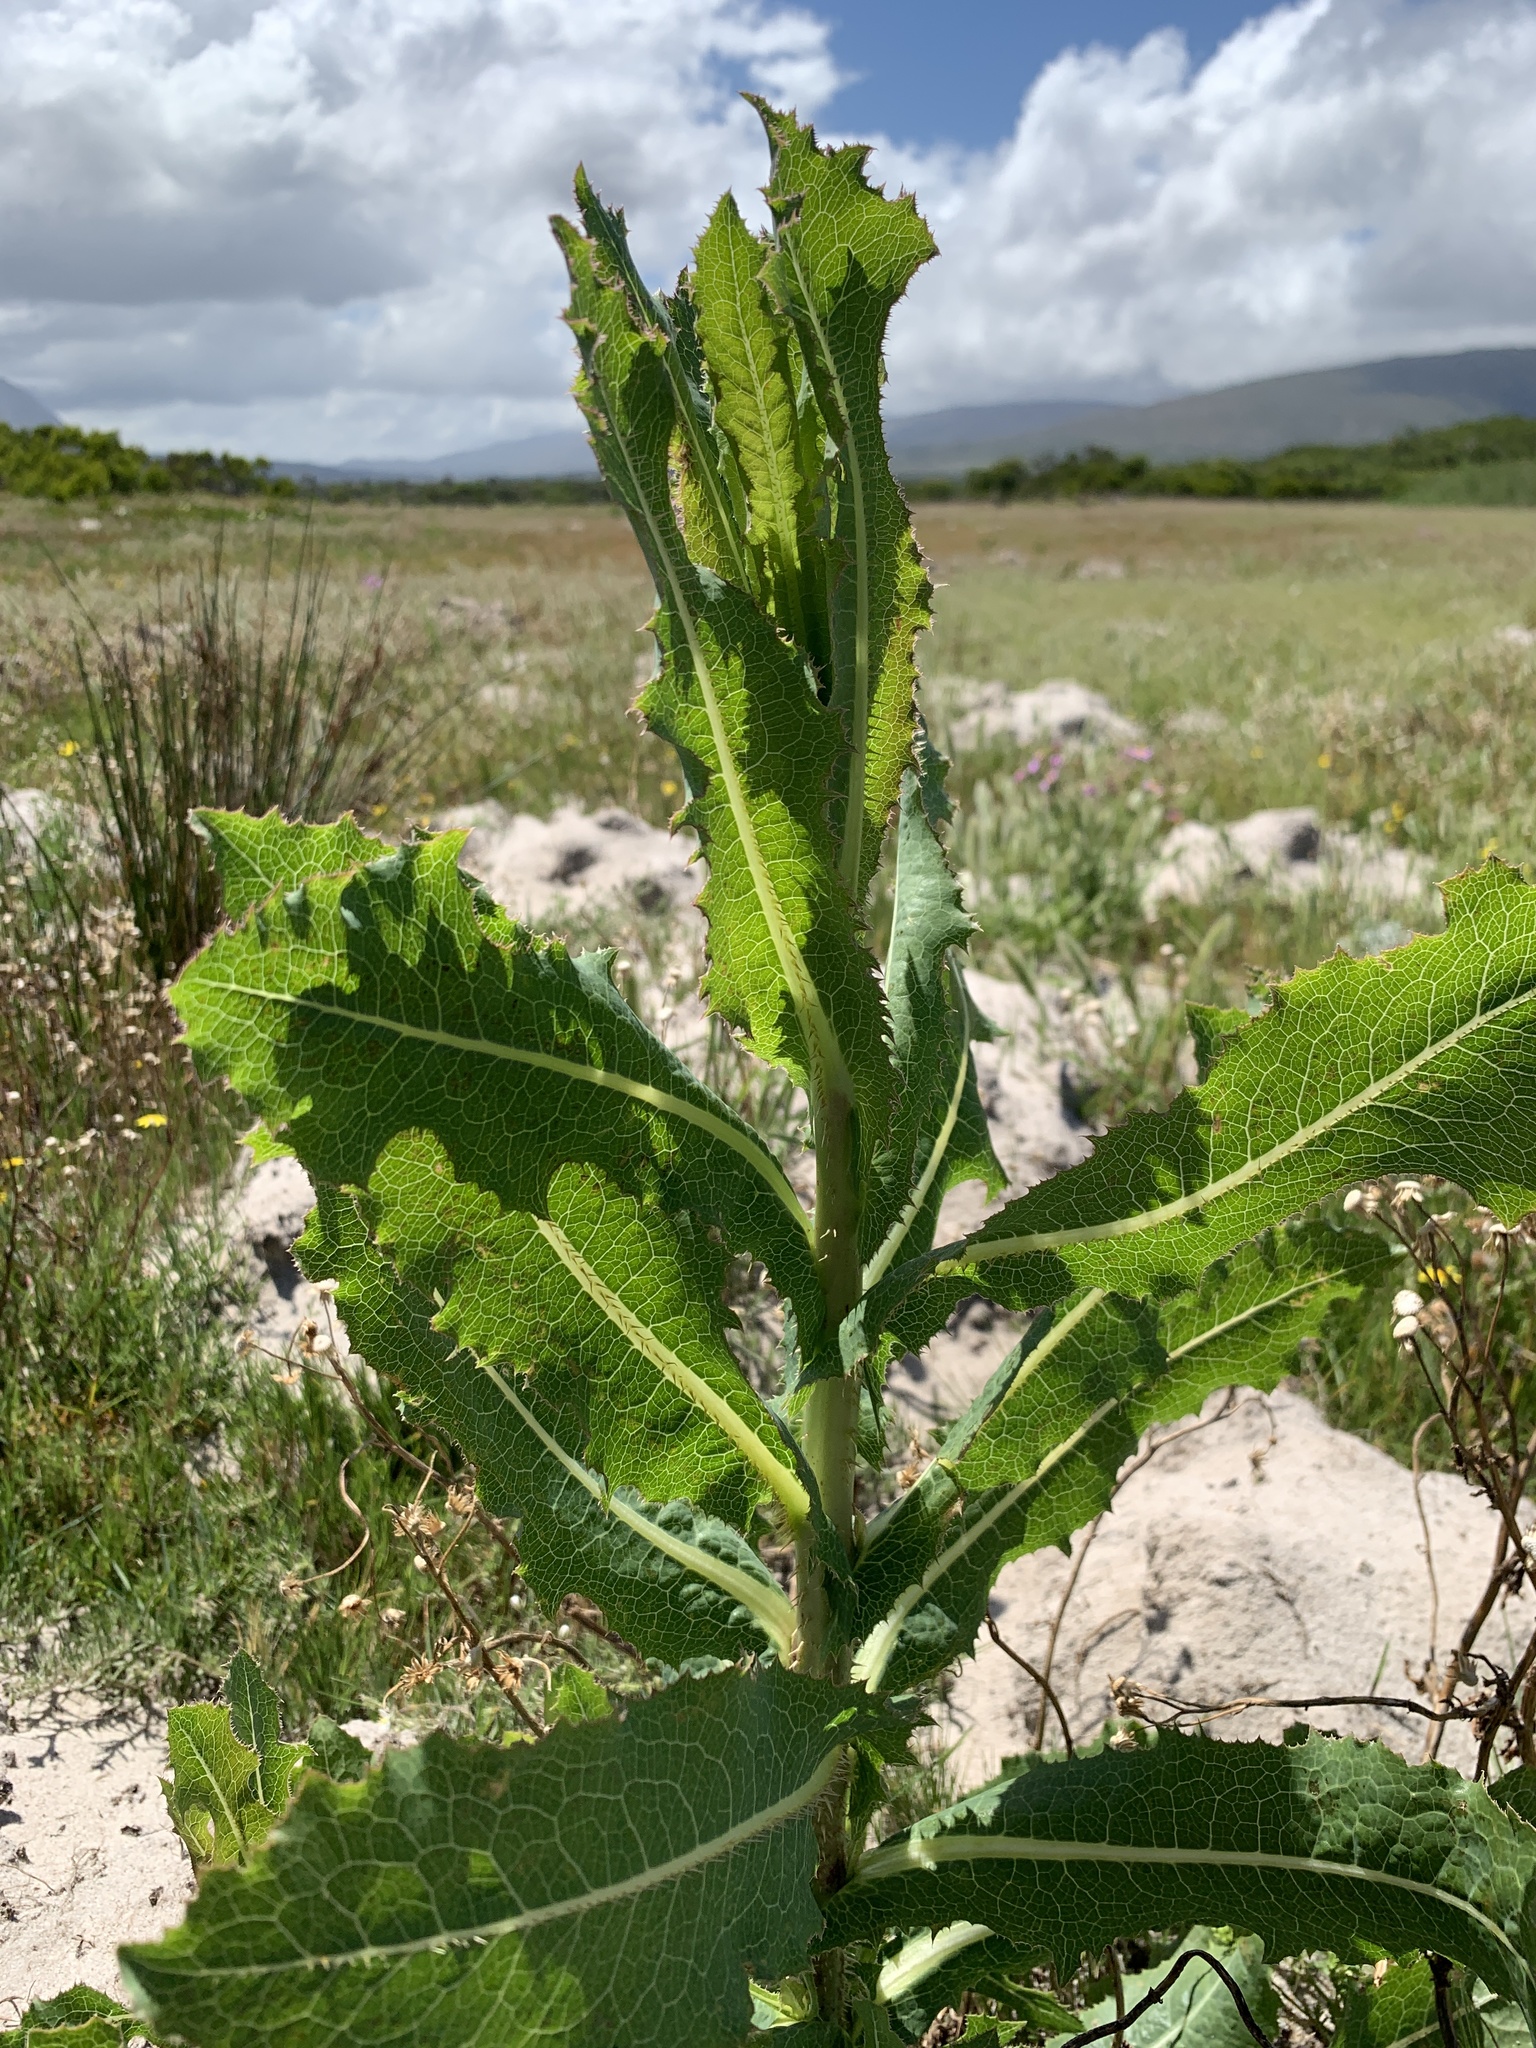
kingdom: Plantae
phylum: Tracheophyta
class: Magnoliopsida
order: Asterales
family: Asteraceae
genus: Lactuca
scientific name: Lactuca serriola
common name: Prickly lettuce
